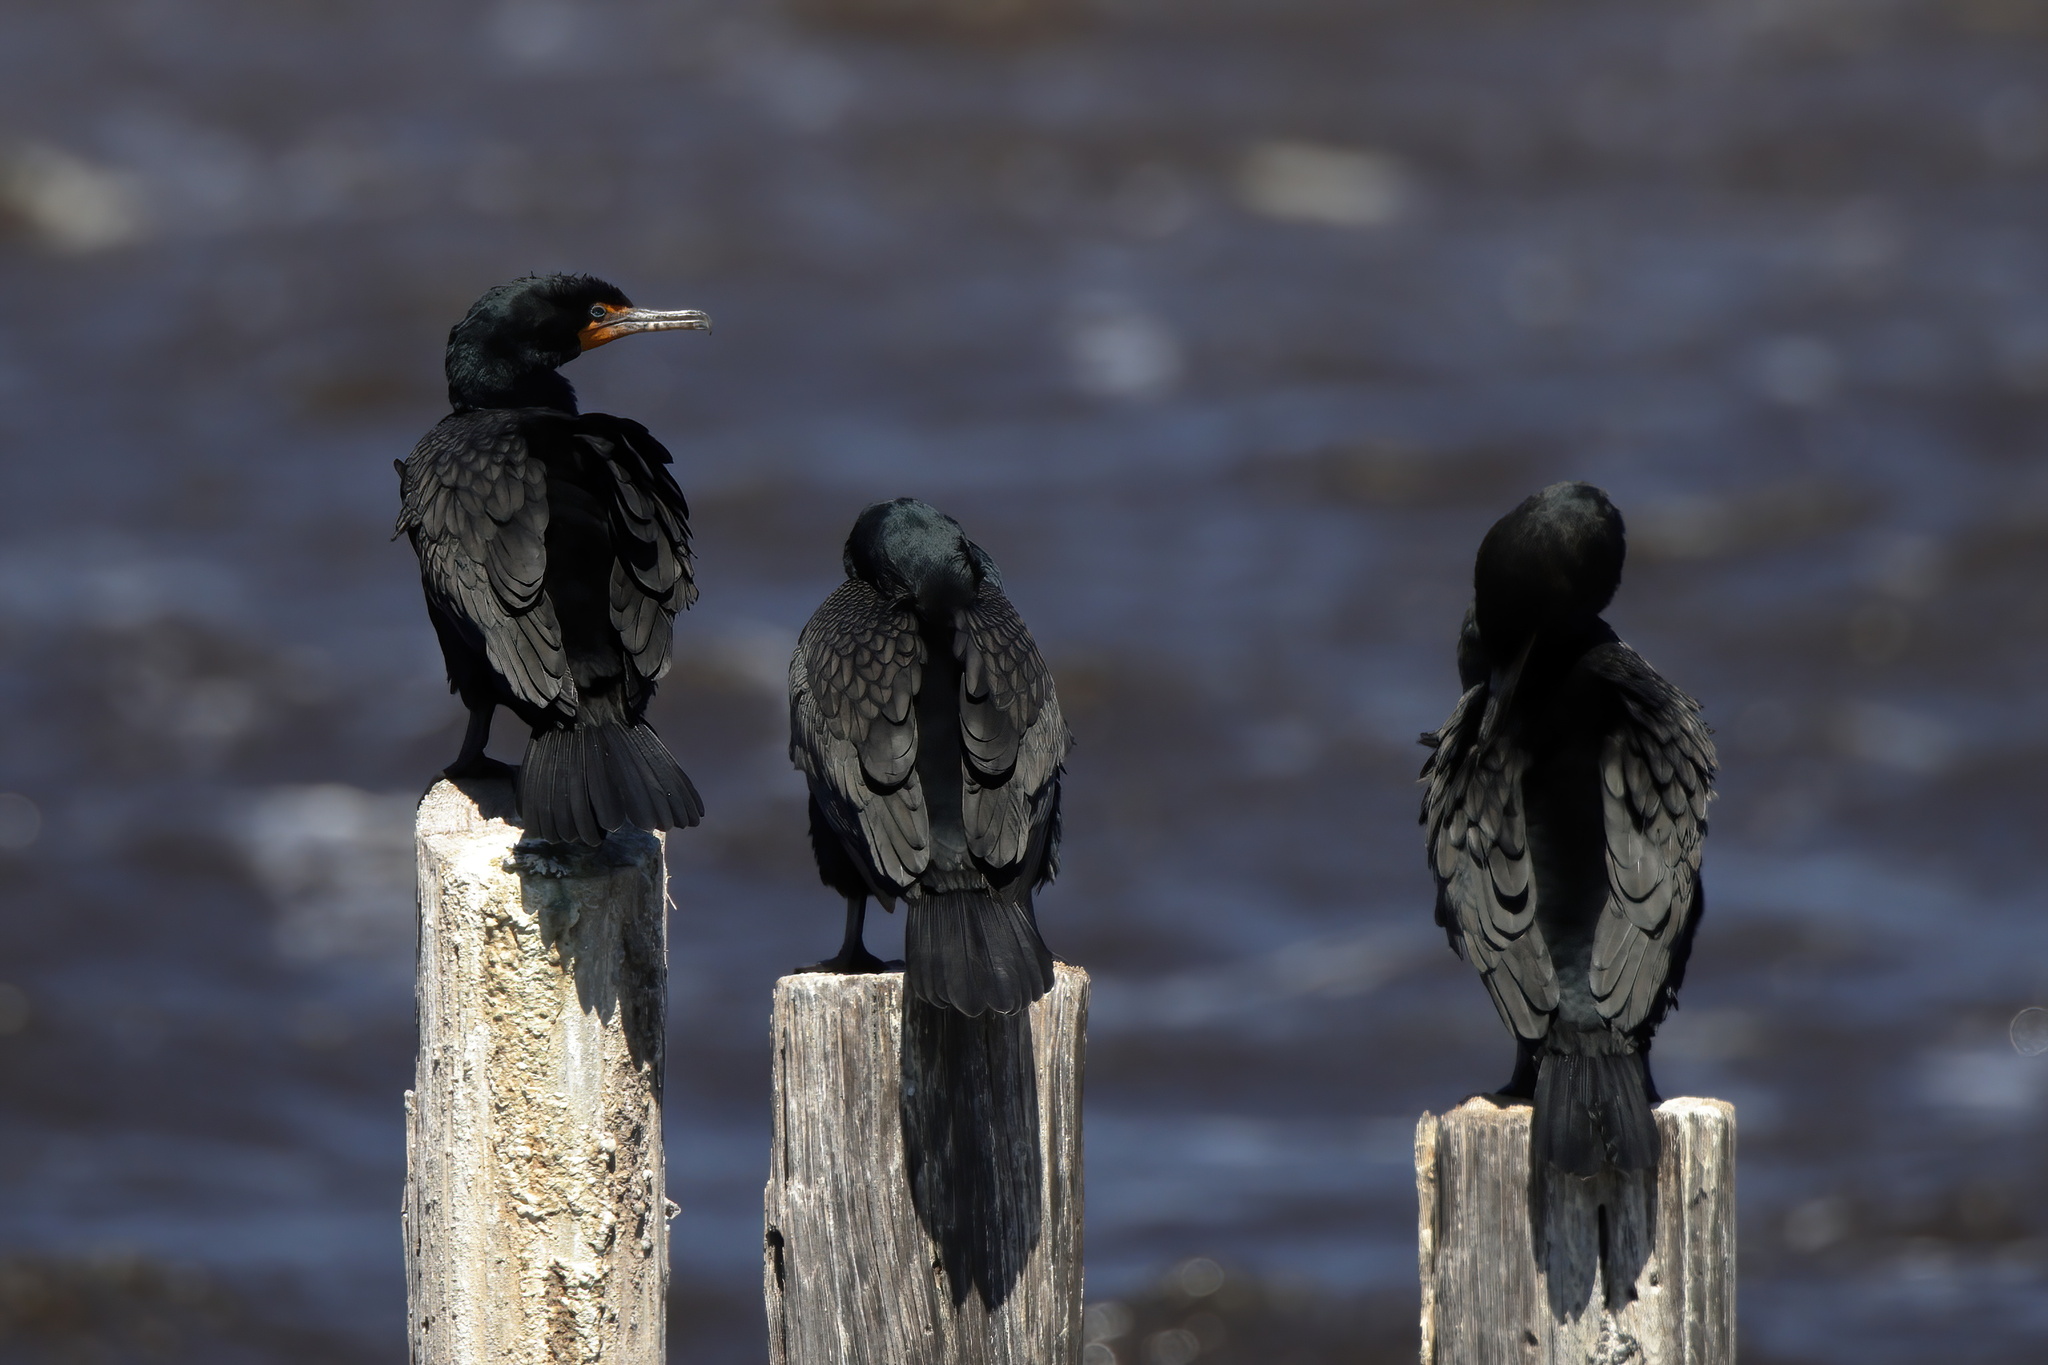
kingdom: Animalia
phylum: Chordata
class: Aves
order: Suliformes
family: Phalacrocoracidae
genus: Phalacrocorax
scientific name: Phalacrocorax auritus
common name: Double-crested cormorant
